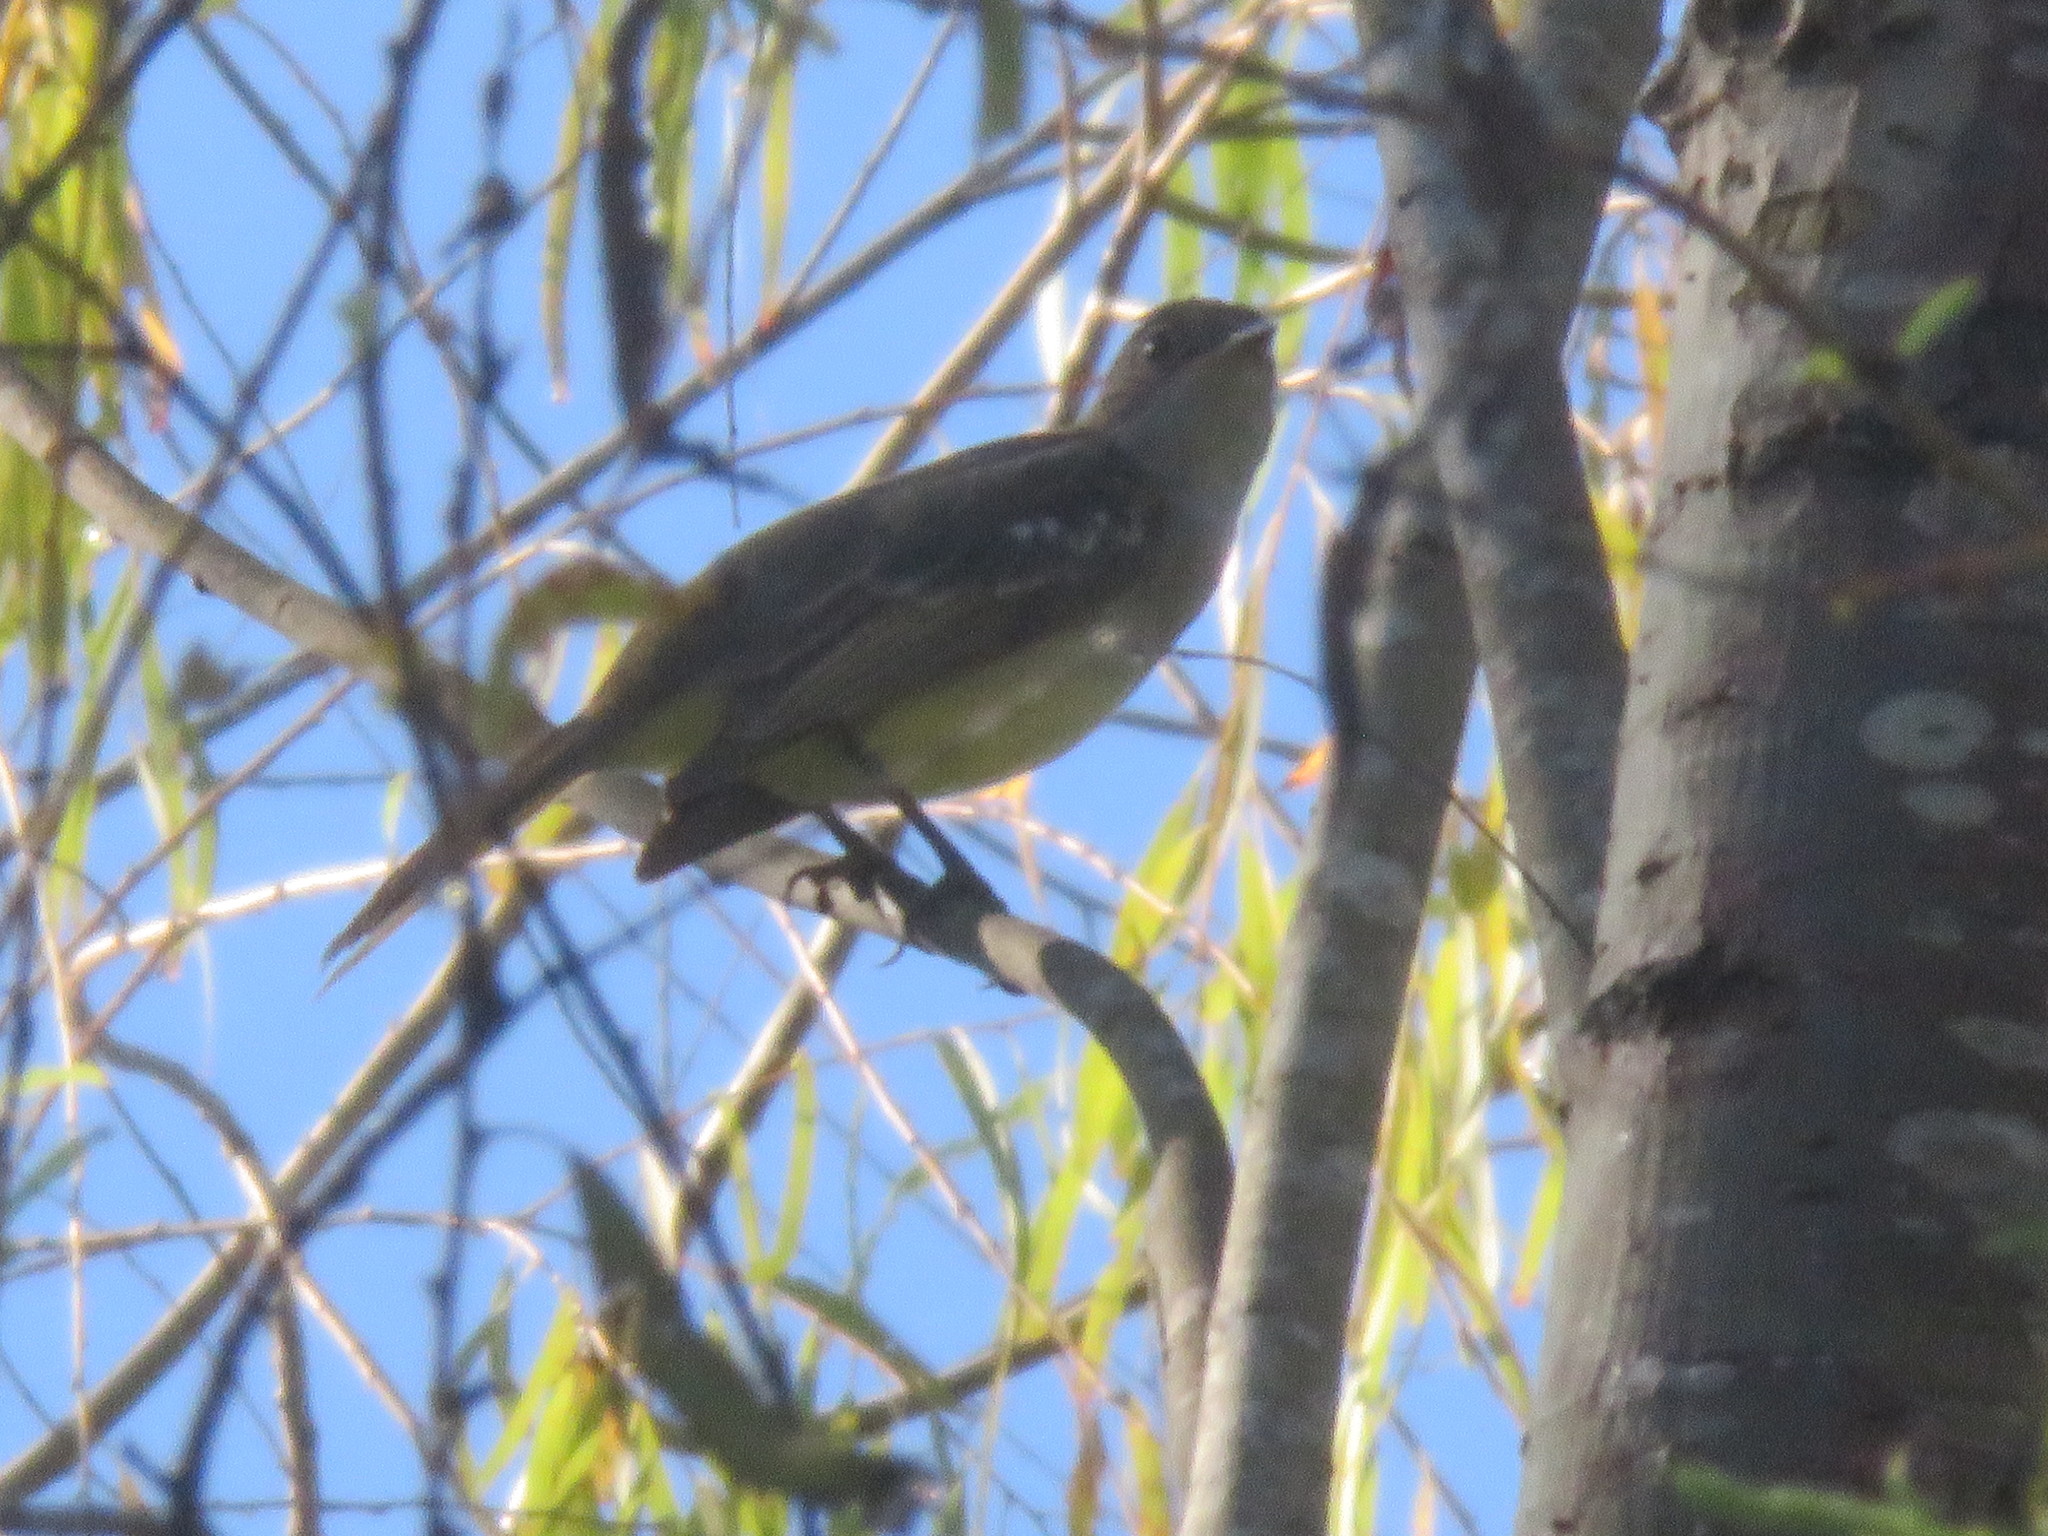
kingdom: Animalia
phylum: Chordata
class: Aves
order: Passeriformes
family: Tyrannidae
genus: Elaenia
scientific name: Elaenia spectabilis
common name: Large elaenia
